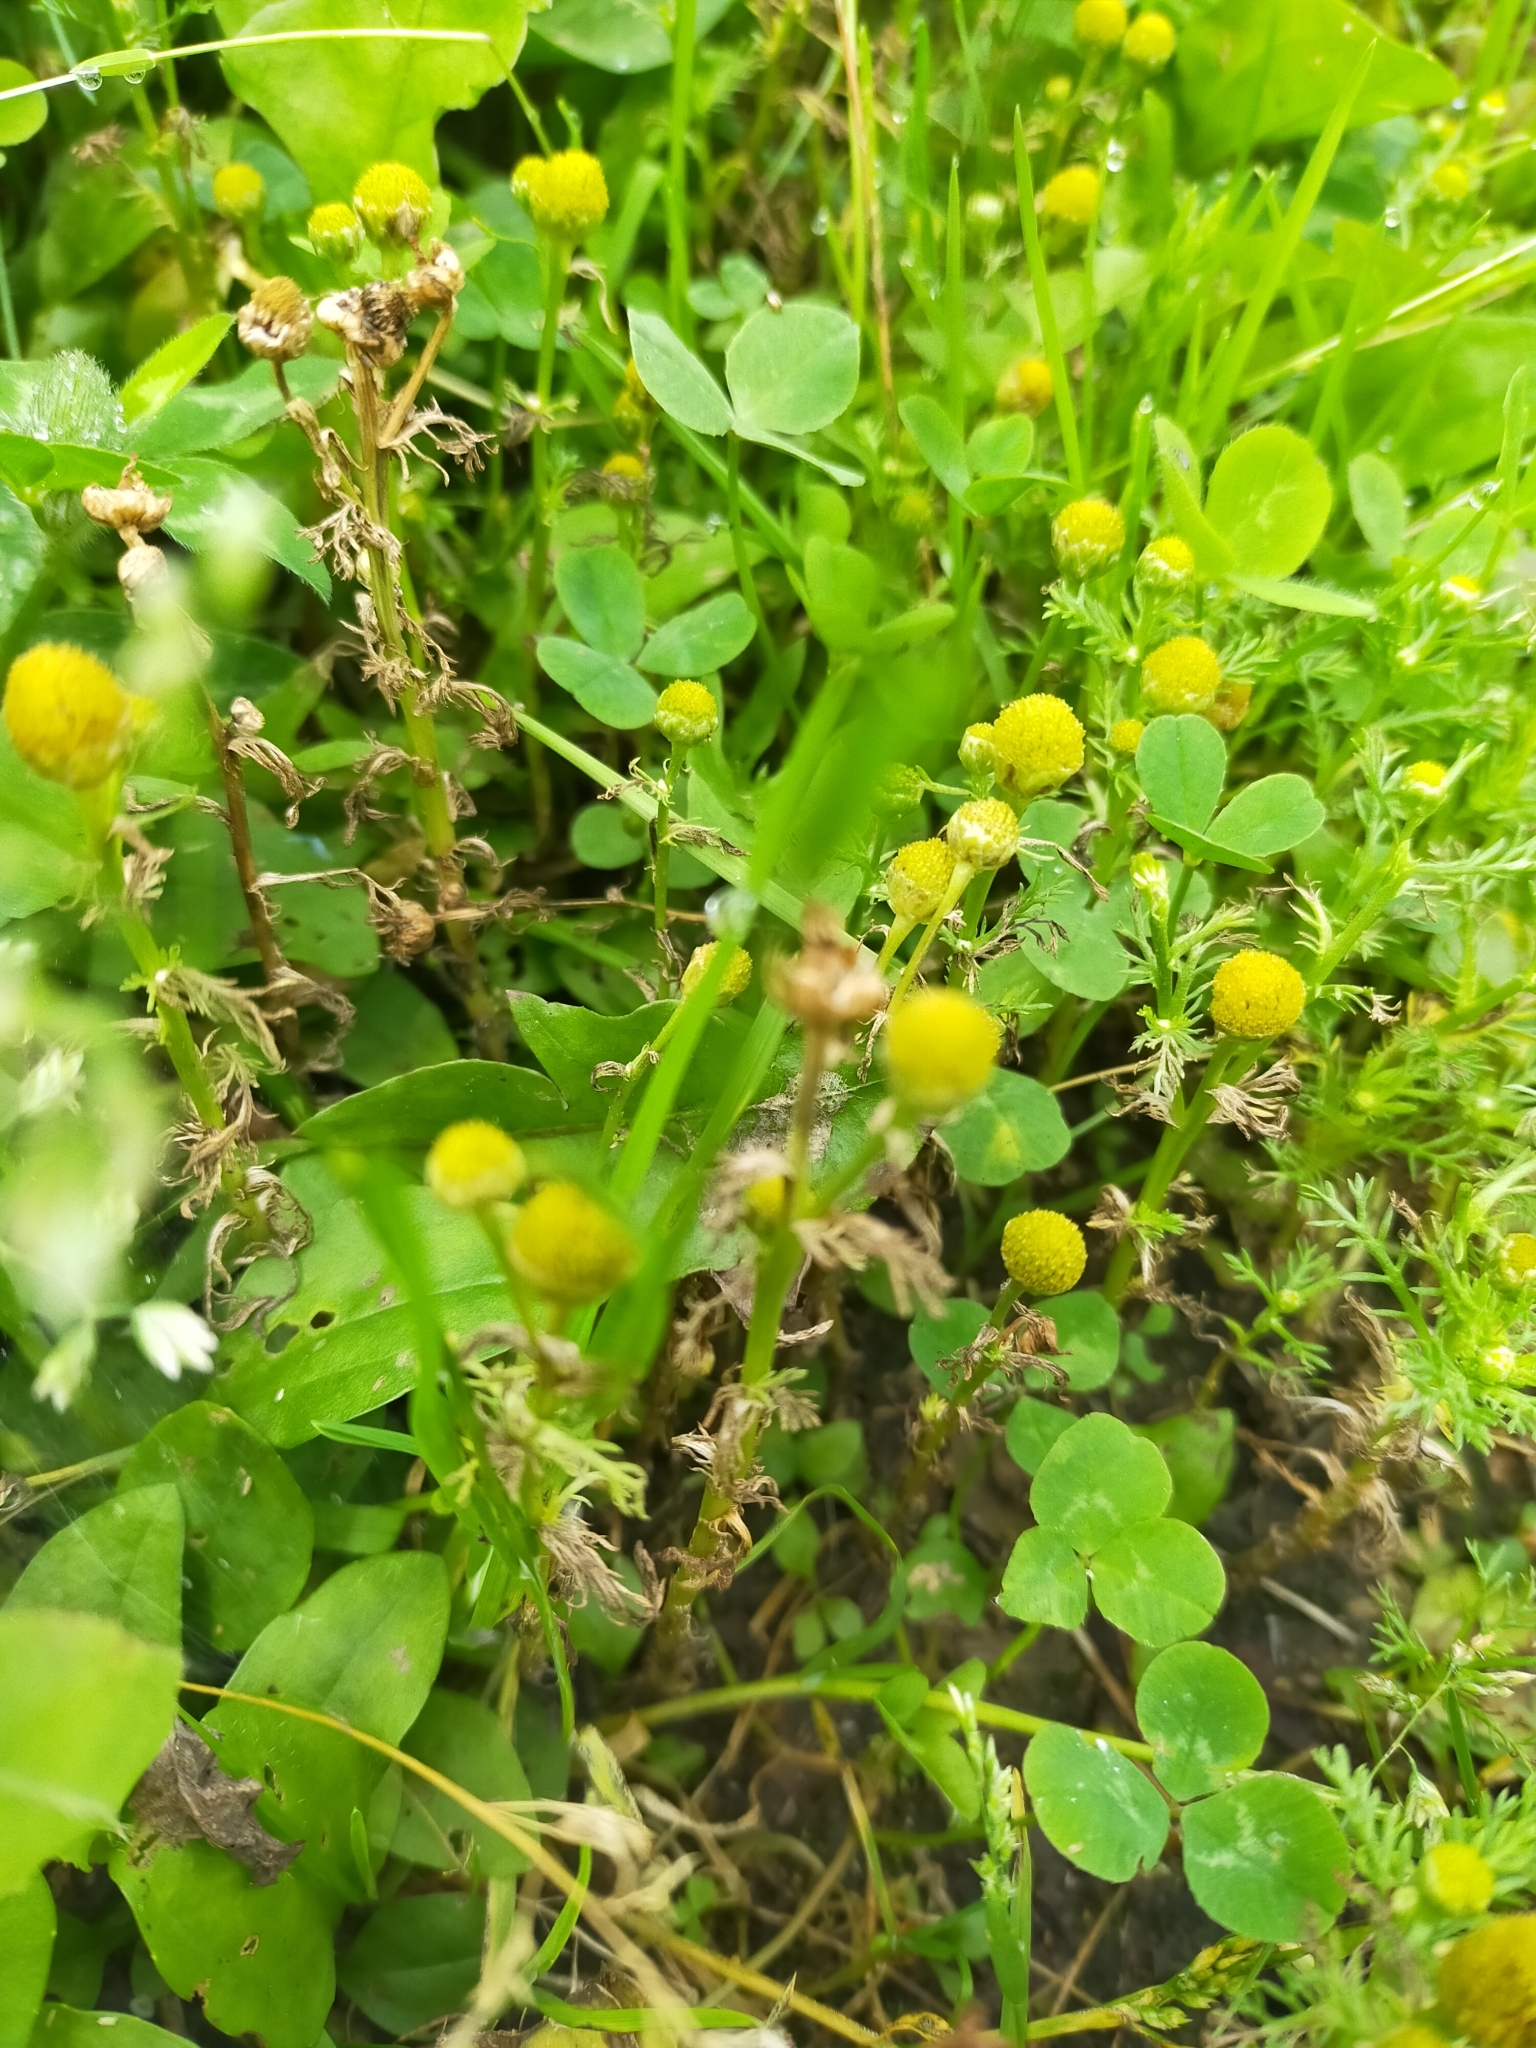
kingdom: Plantae
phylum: Tracheophyta
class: Magnoliopsida
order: Asterales
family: Asteraceae
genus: Matricaria
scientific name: Matricaria discoidea
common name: Disc mayweed
